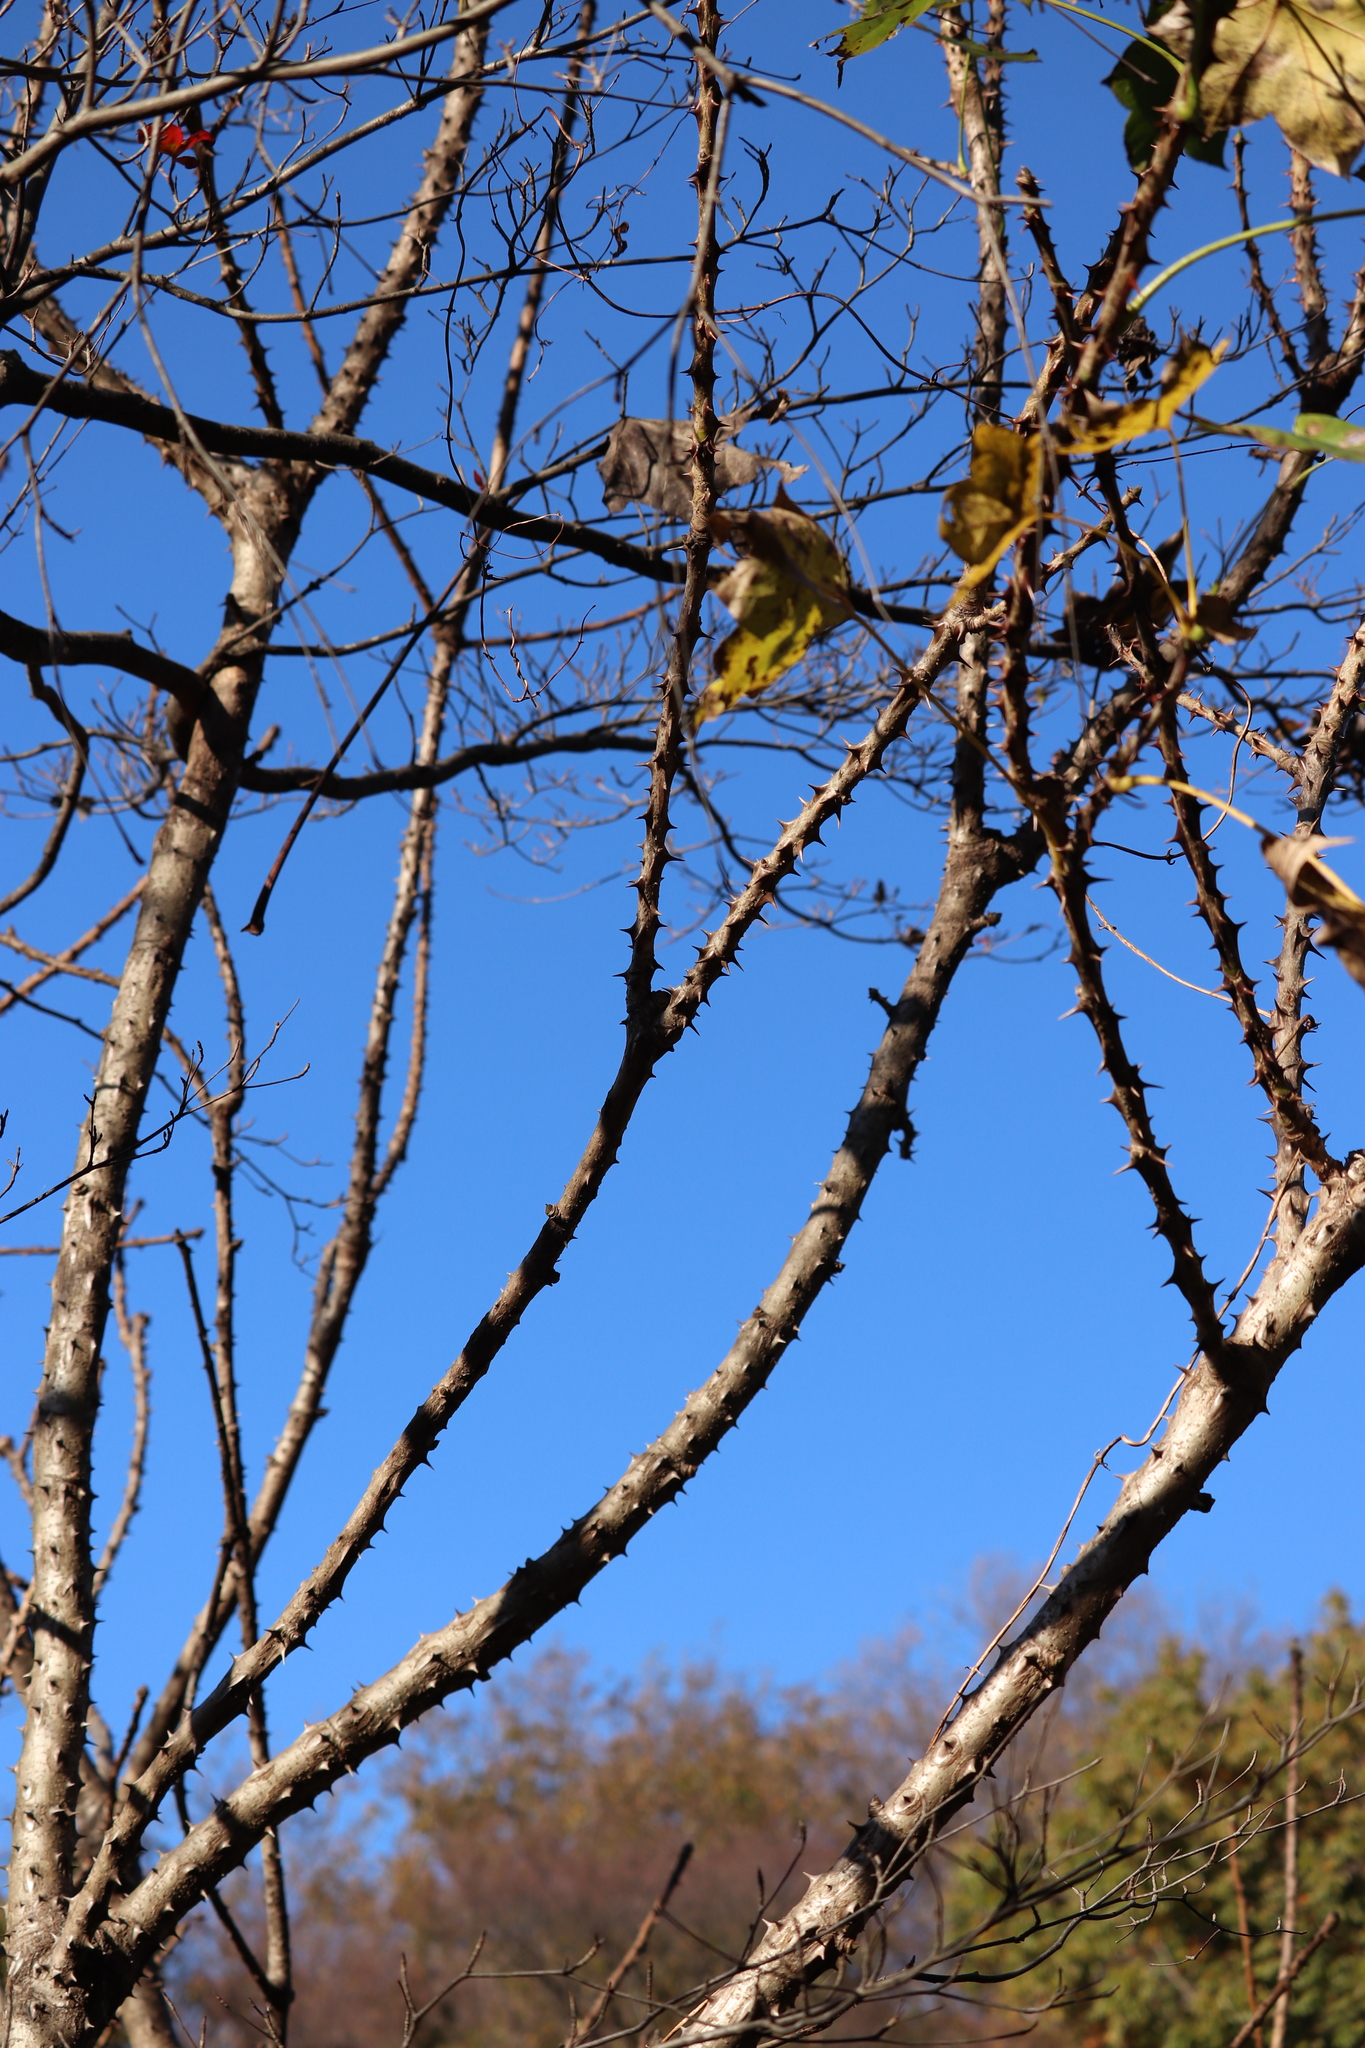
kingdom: Plantae
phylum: Tracheophyta
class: Magnoliopsida
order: Apiales
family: Araliaceae
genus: Kalopanax
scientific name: Kalopanax septemlobus
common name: Castor aralia
